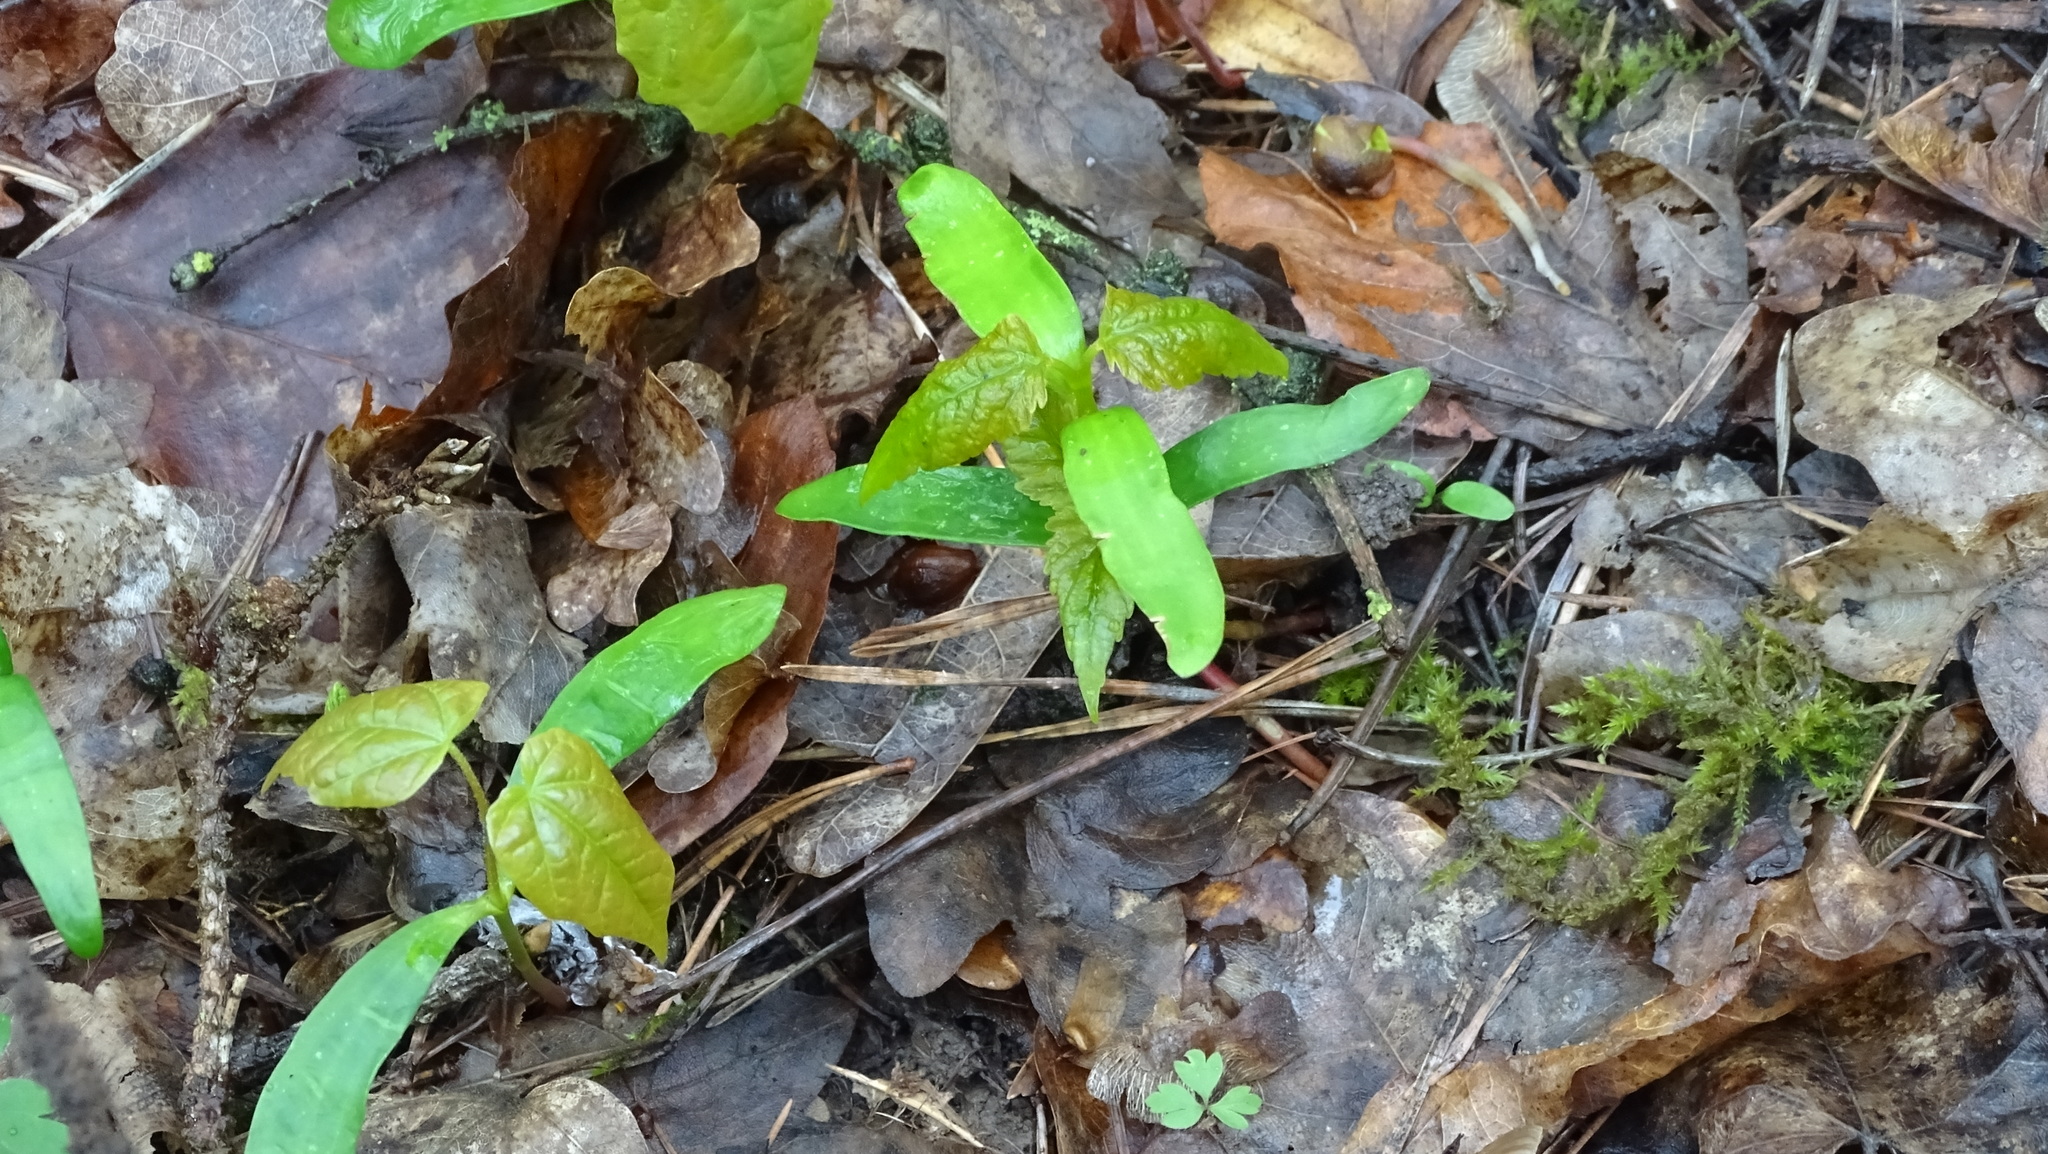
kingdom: Plantae
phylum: Tracheophyta
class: Magnoliopsida
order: Sapindales
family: Sapindaceae
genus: Acer
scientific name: Acer pseudoplatanus
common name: Sycamore
